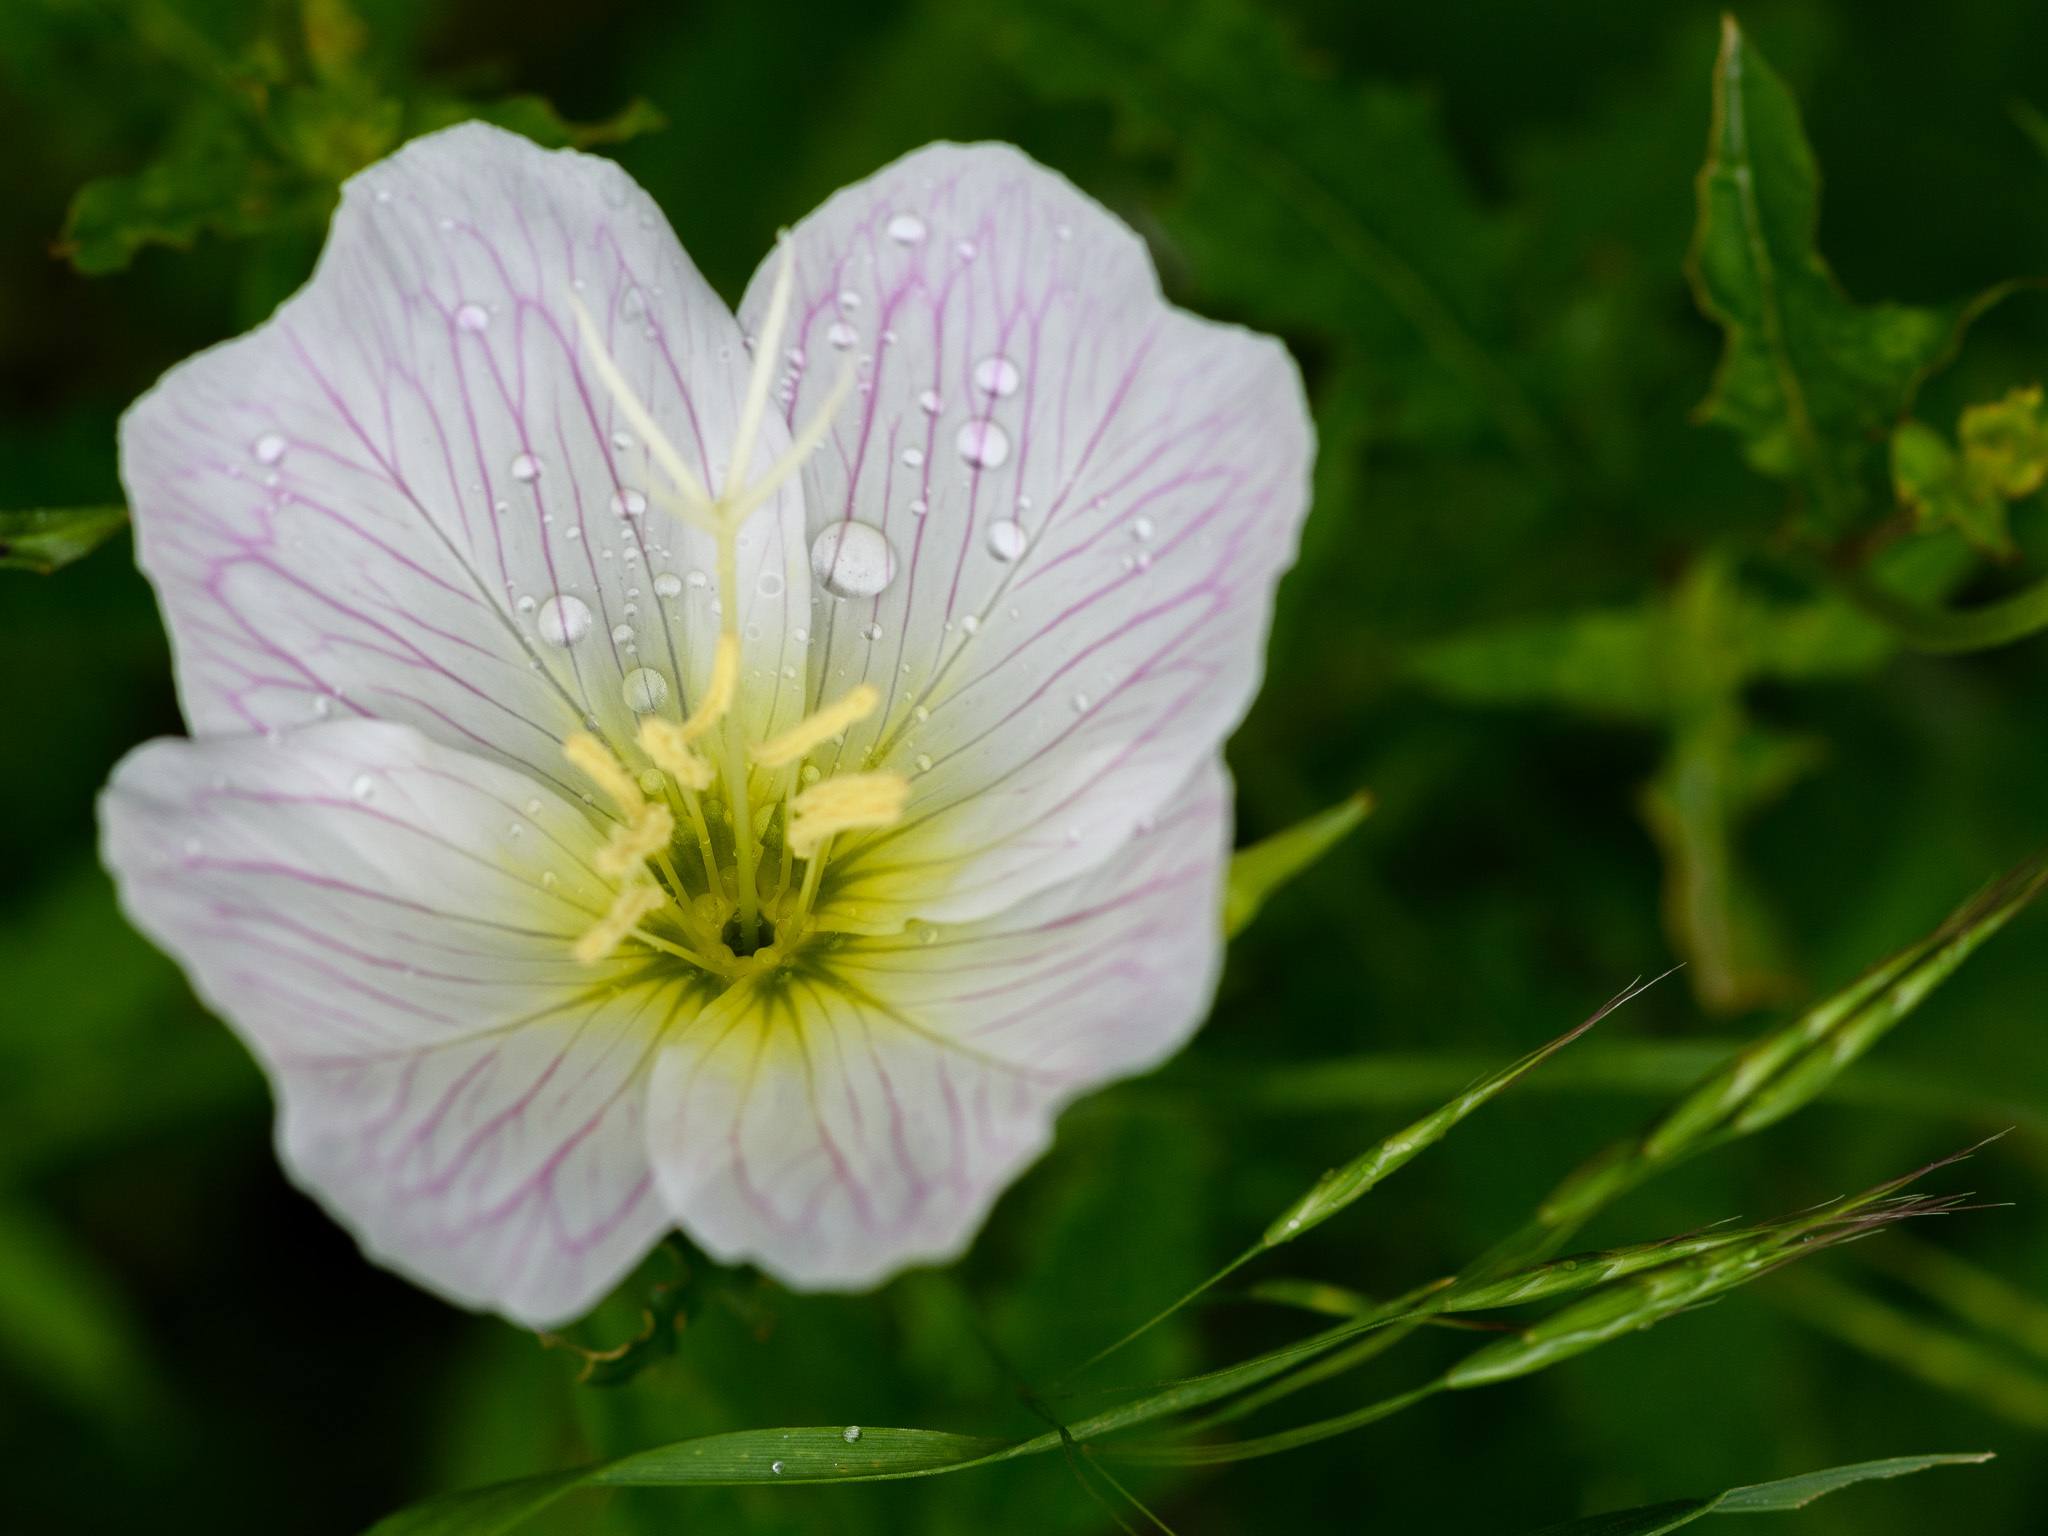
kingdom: Plantae
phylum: Tracheophyta
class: Magnoliopsida
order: Myrtales
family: Onagraceae
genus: Oenothera
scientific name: Oenothera speciosa
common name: White evening-primrose
